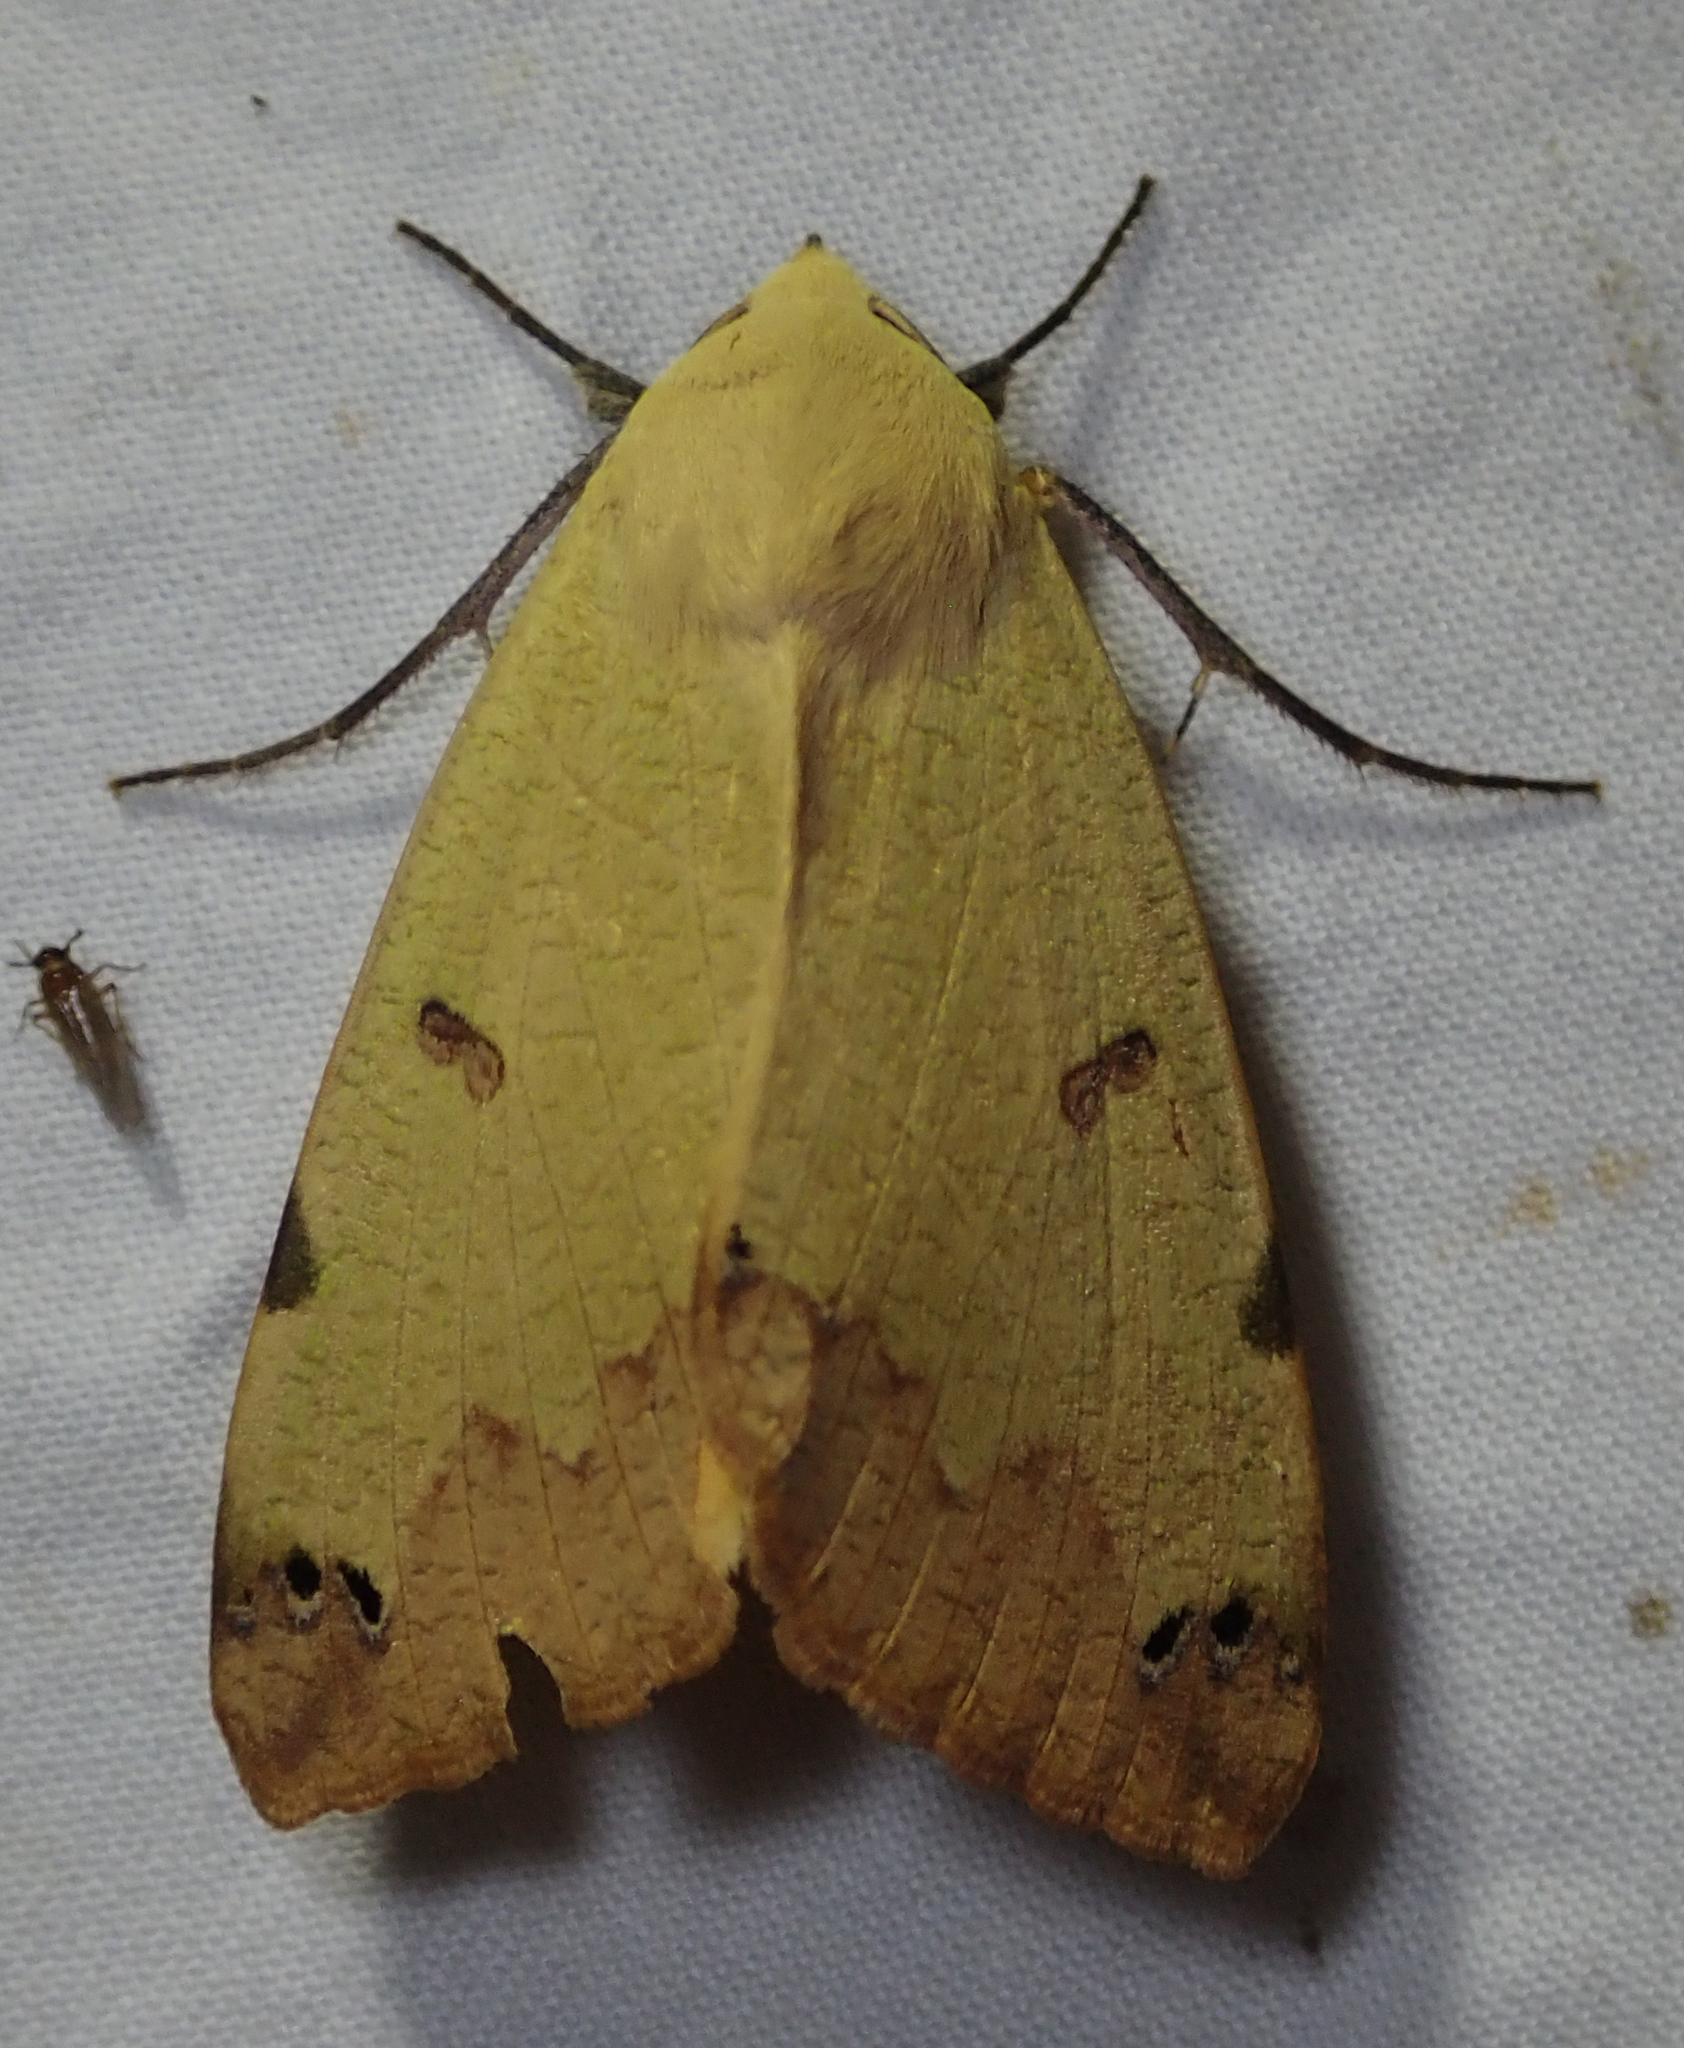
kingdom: Animalia
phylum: Arthropoda
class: Insecta
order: Lepidoptera
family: Erebidae
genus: Ophiusa
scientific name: Ophiusa tirhaca
